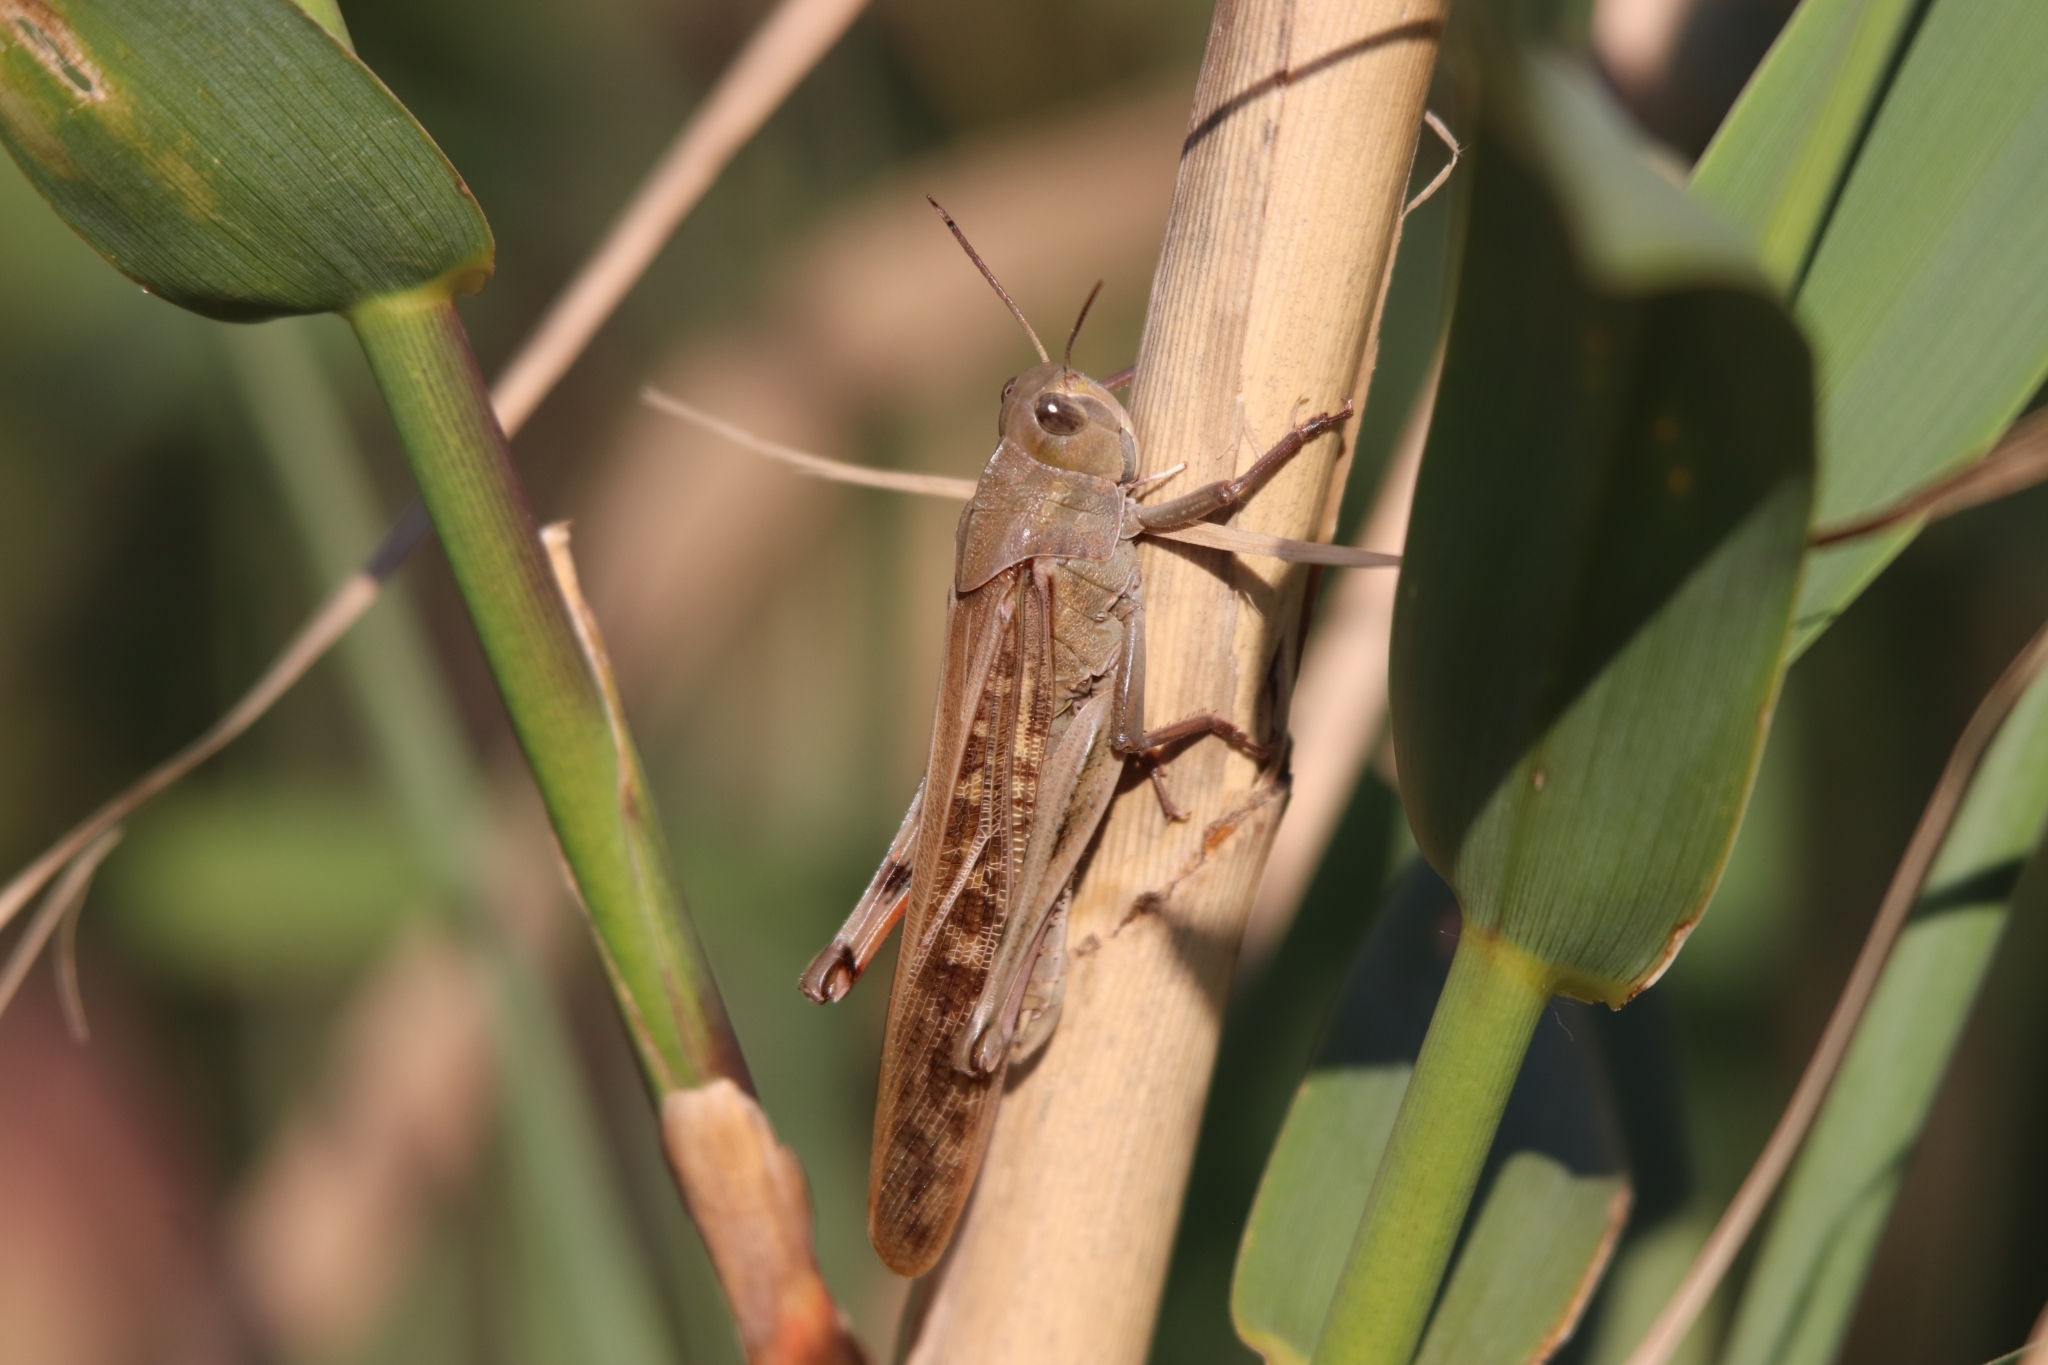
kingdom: Animalia
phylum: Arthropoda
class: Insecta
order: Orthoptera
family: Acrididae
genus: Locusta
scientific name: Locusta migratoria
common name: Migratory locust
